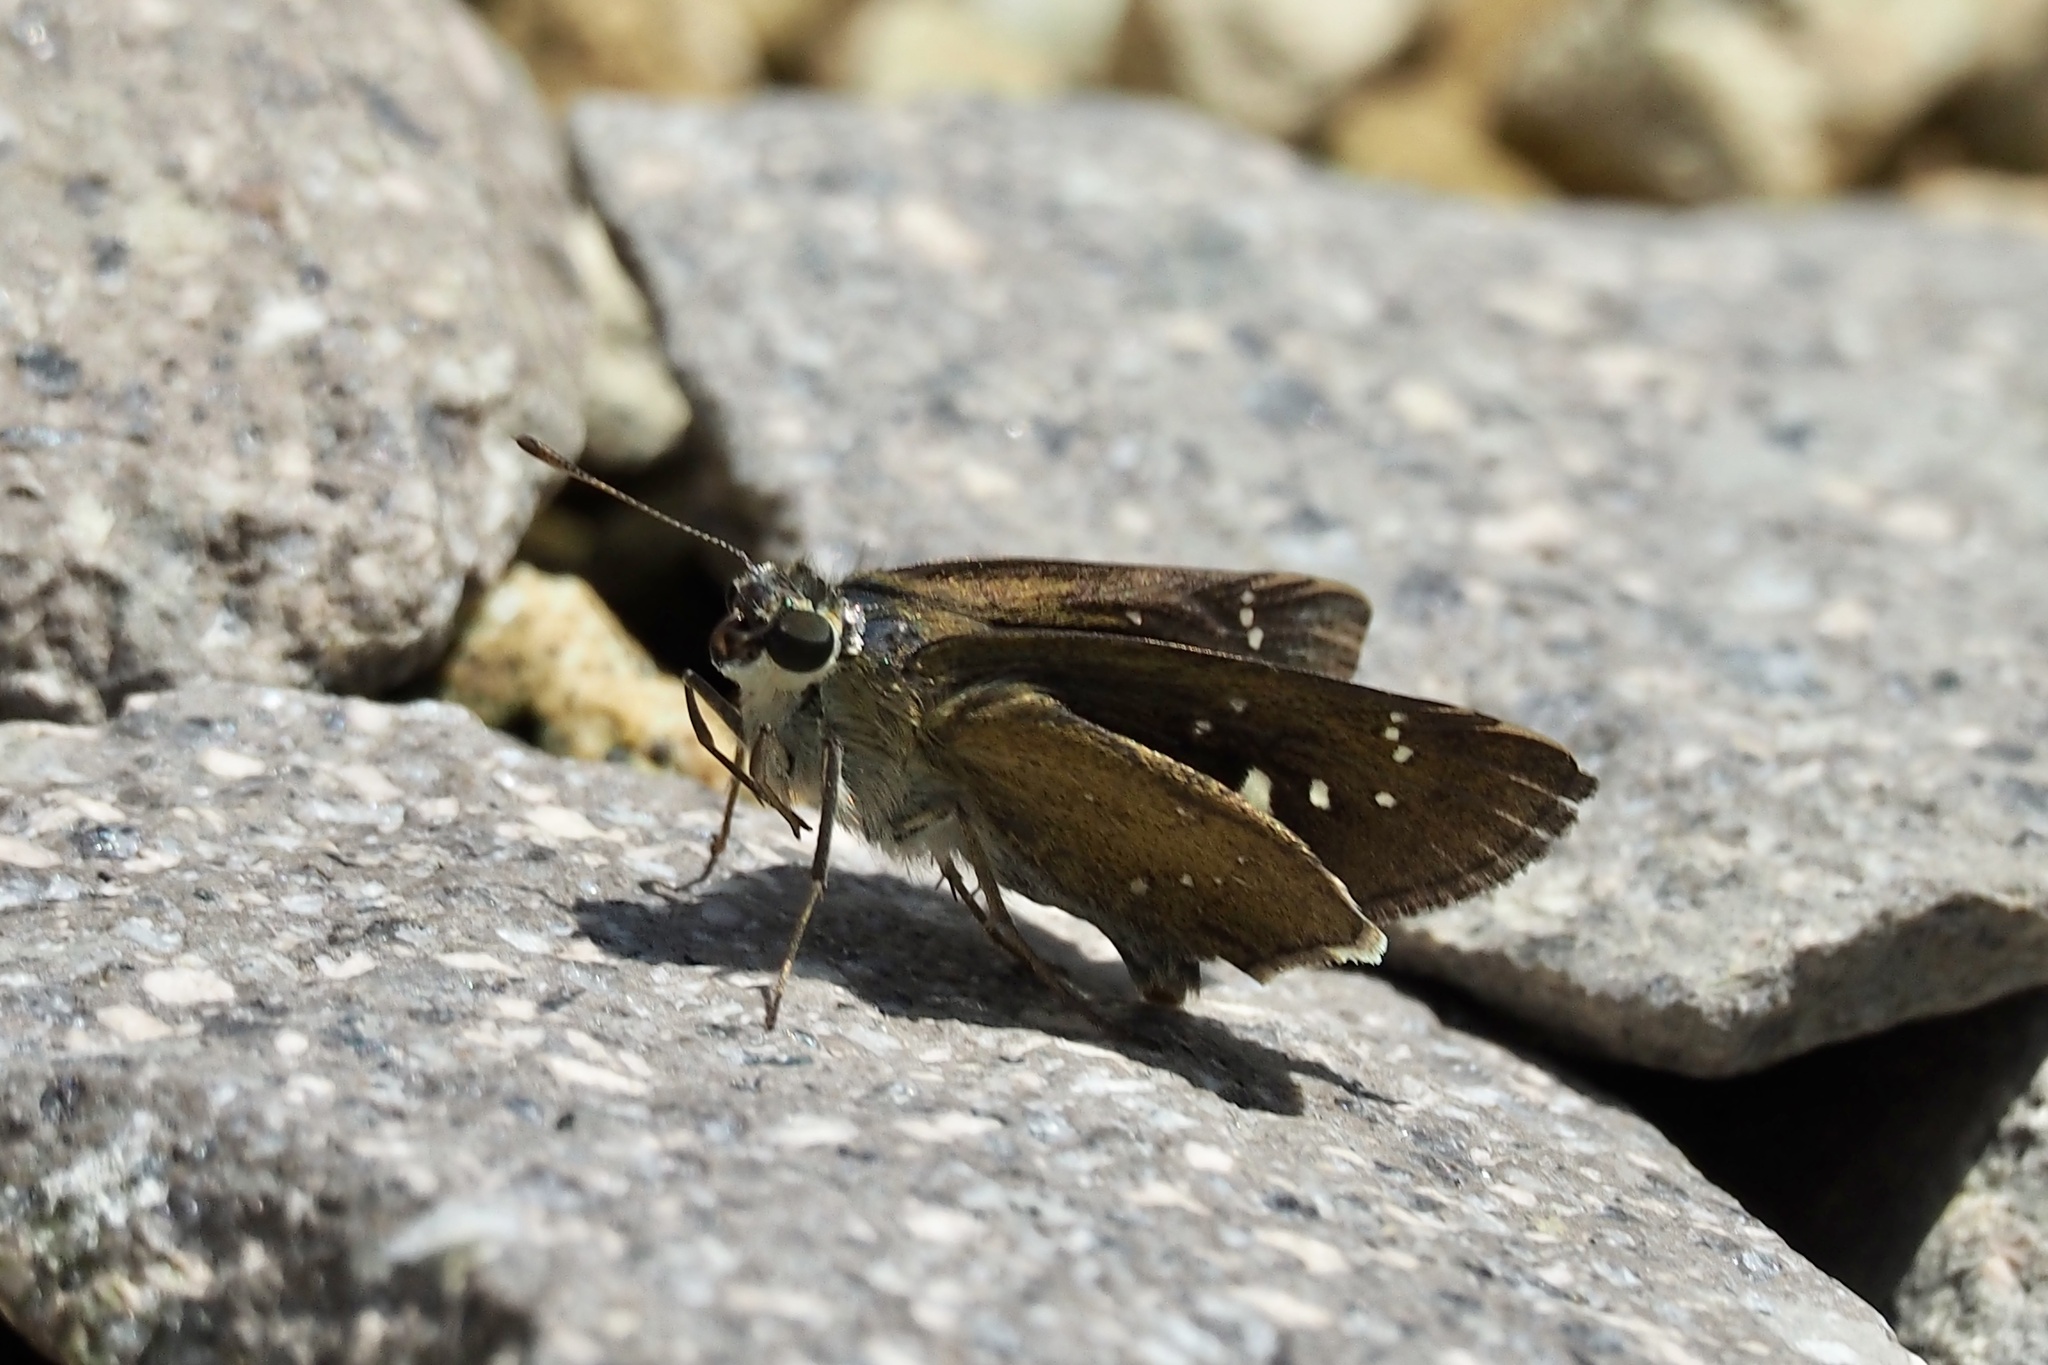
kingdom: Animalia
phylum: Arthropoda
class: Insecta
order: Lepidoptera
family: Hesperiidae
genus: Pelopidas
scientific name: Pelopidas mathias
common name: Black-branded swift
